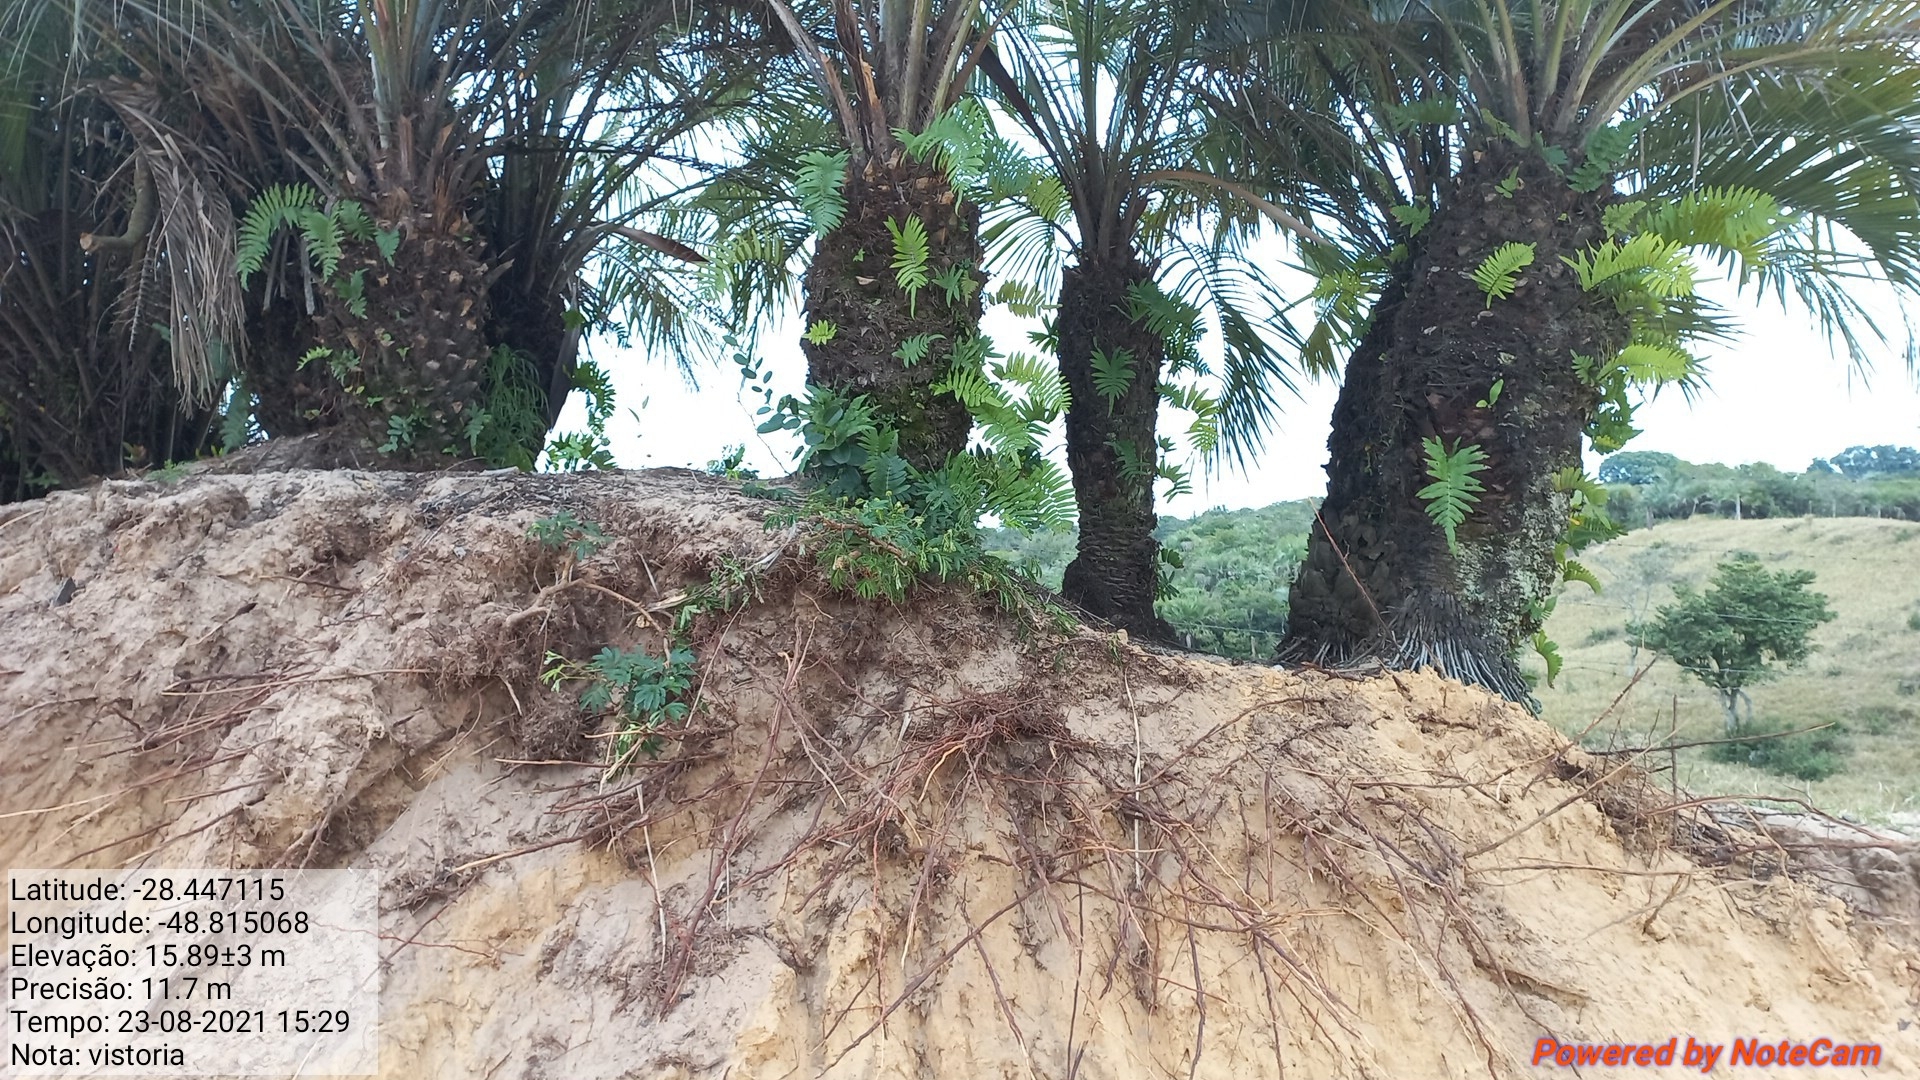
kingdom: Plantae
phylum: Tracheophyta
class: Liliopsida
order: Arecales
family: Arecaceae
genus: Butia
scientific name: Butia catarinensis
